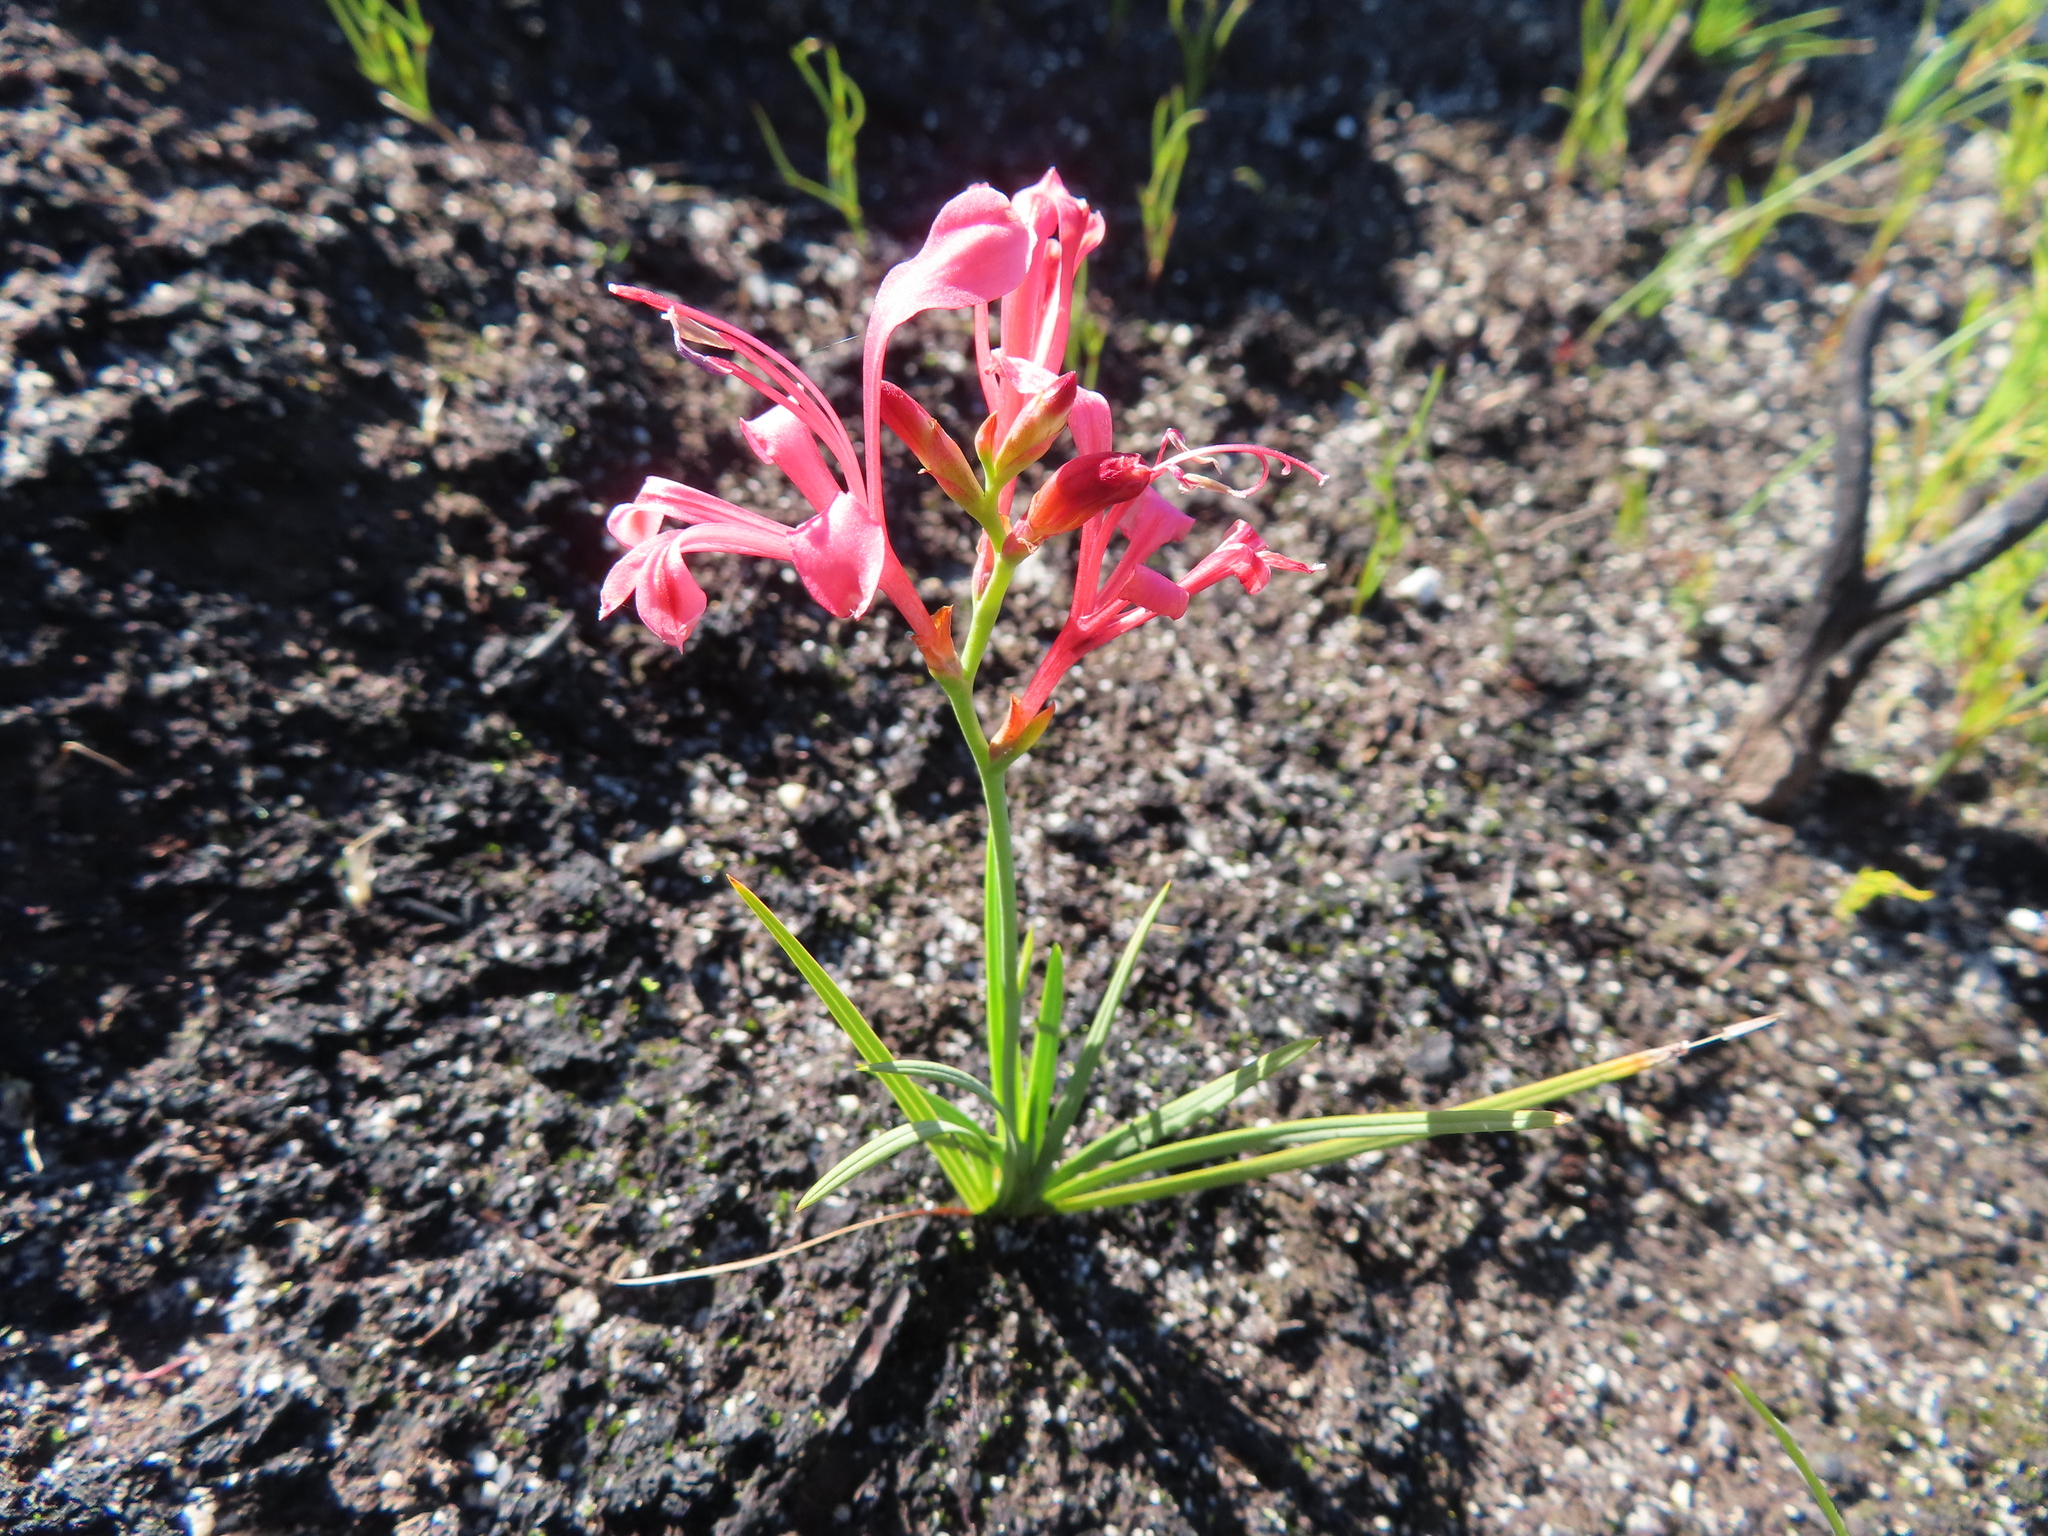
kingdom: Plantae
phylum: Tracheophyta
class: Liliopsida
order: Asparagales
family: Iridaceae
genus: Tritoniopsis
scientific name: Tritoniopsis pulchella
